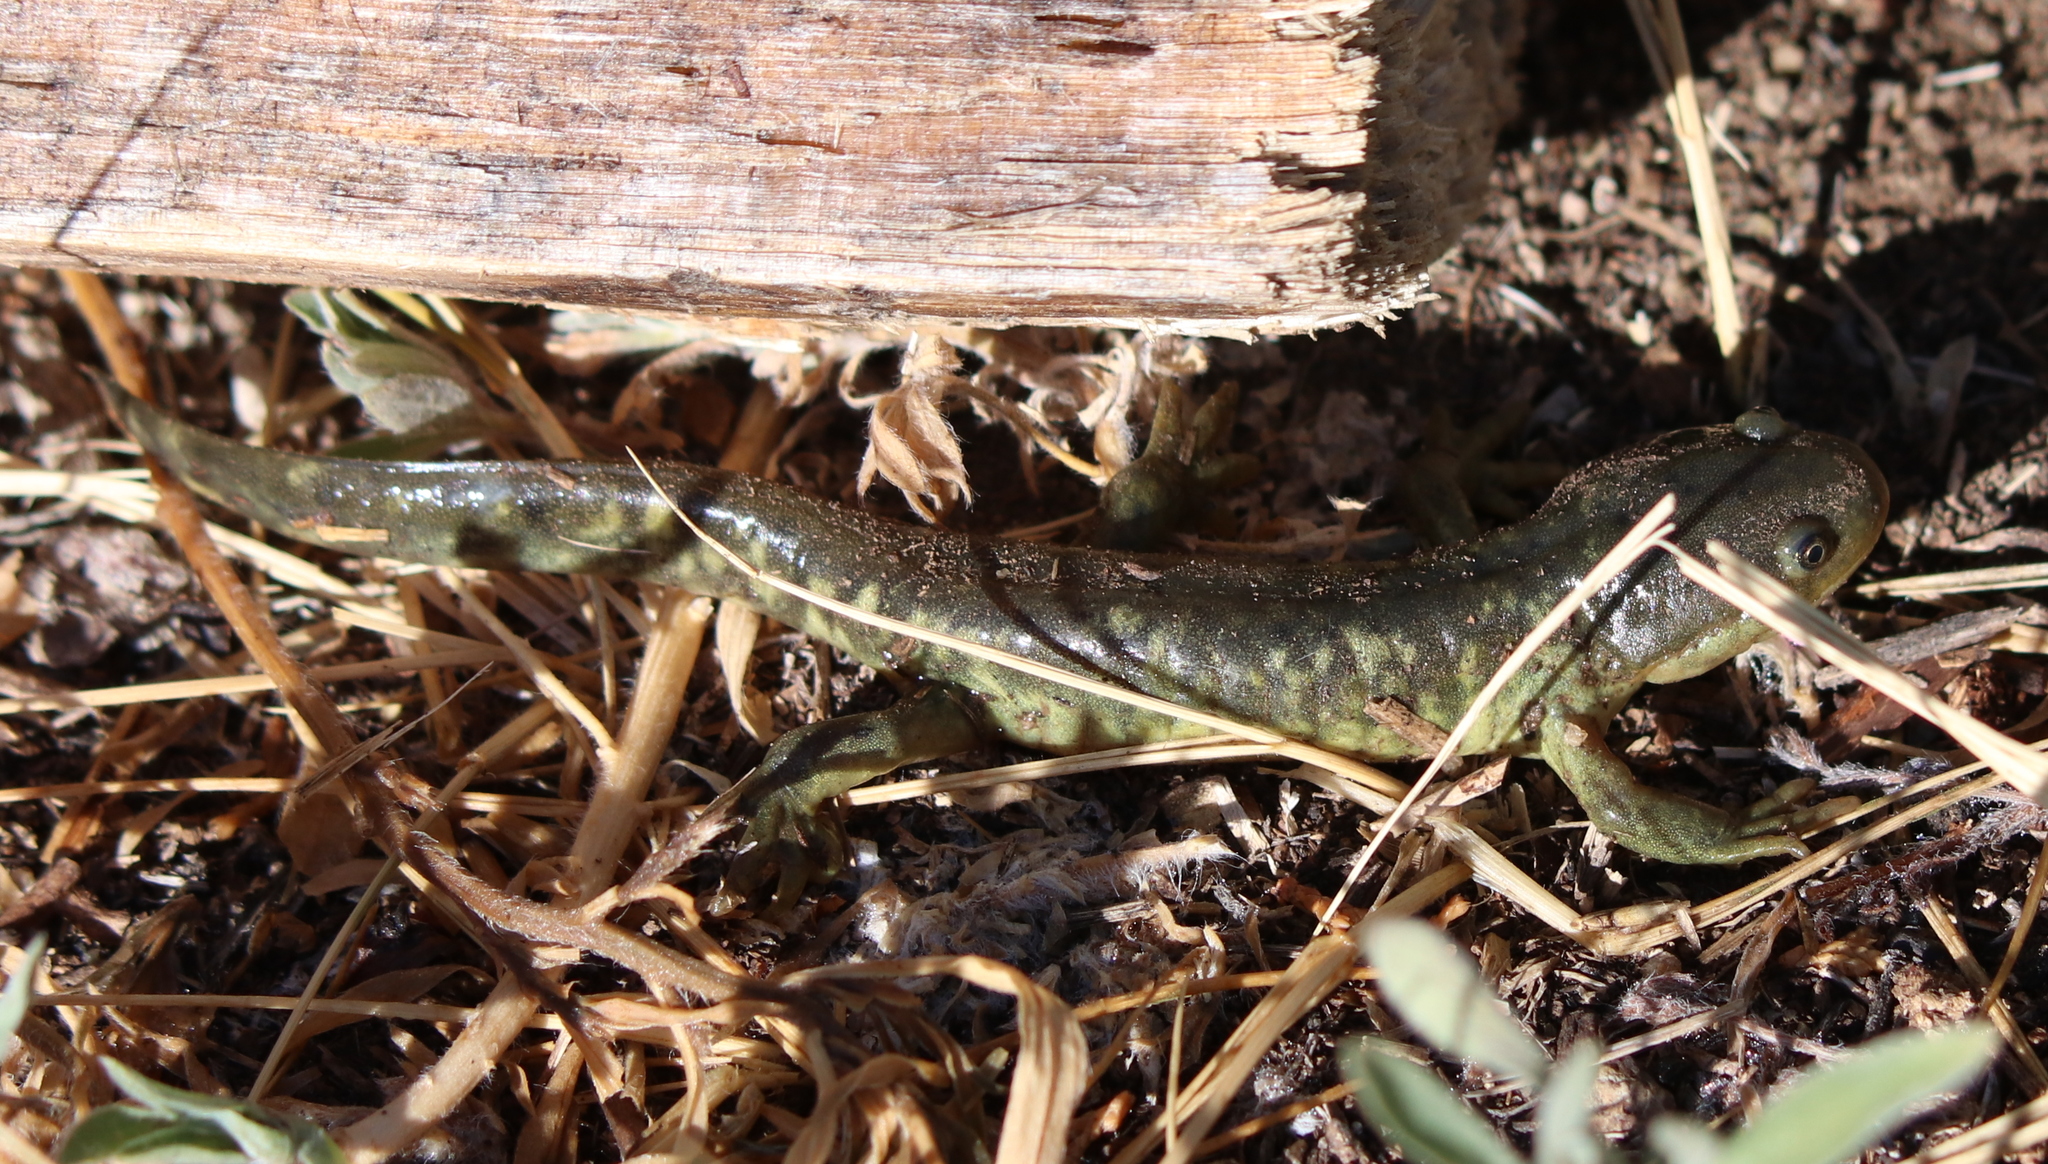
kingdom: Animalia
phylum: Chordata
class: Amphibia
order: Caudata
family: Ambystomatidae
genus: Ambystoma
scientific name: Ambystoma mavortium
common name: Western tiger salamander
